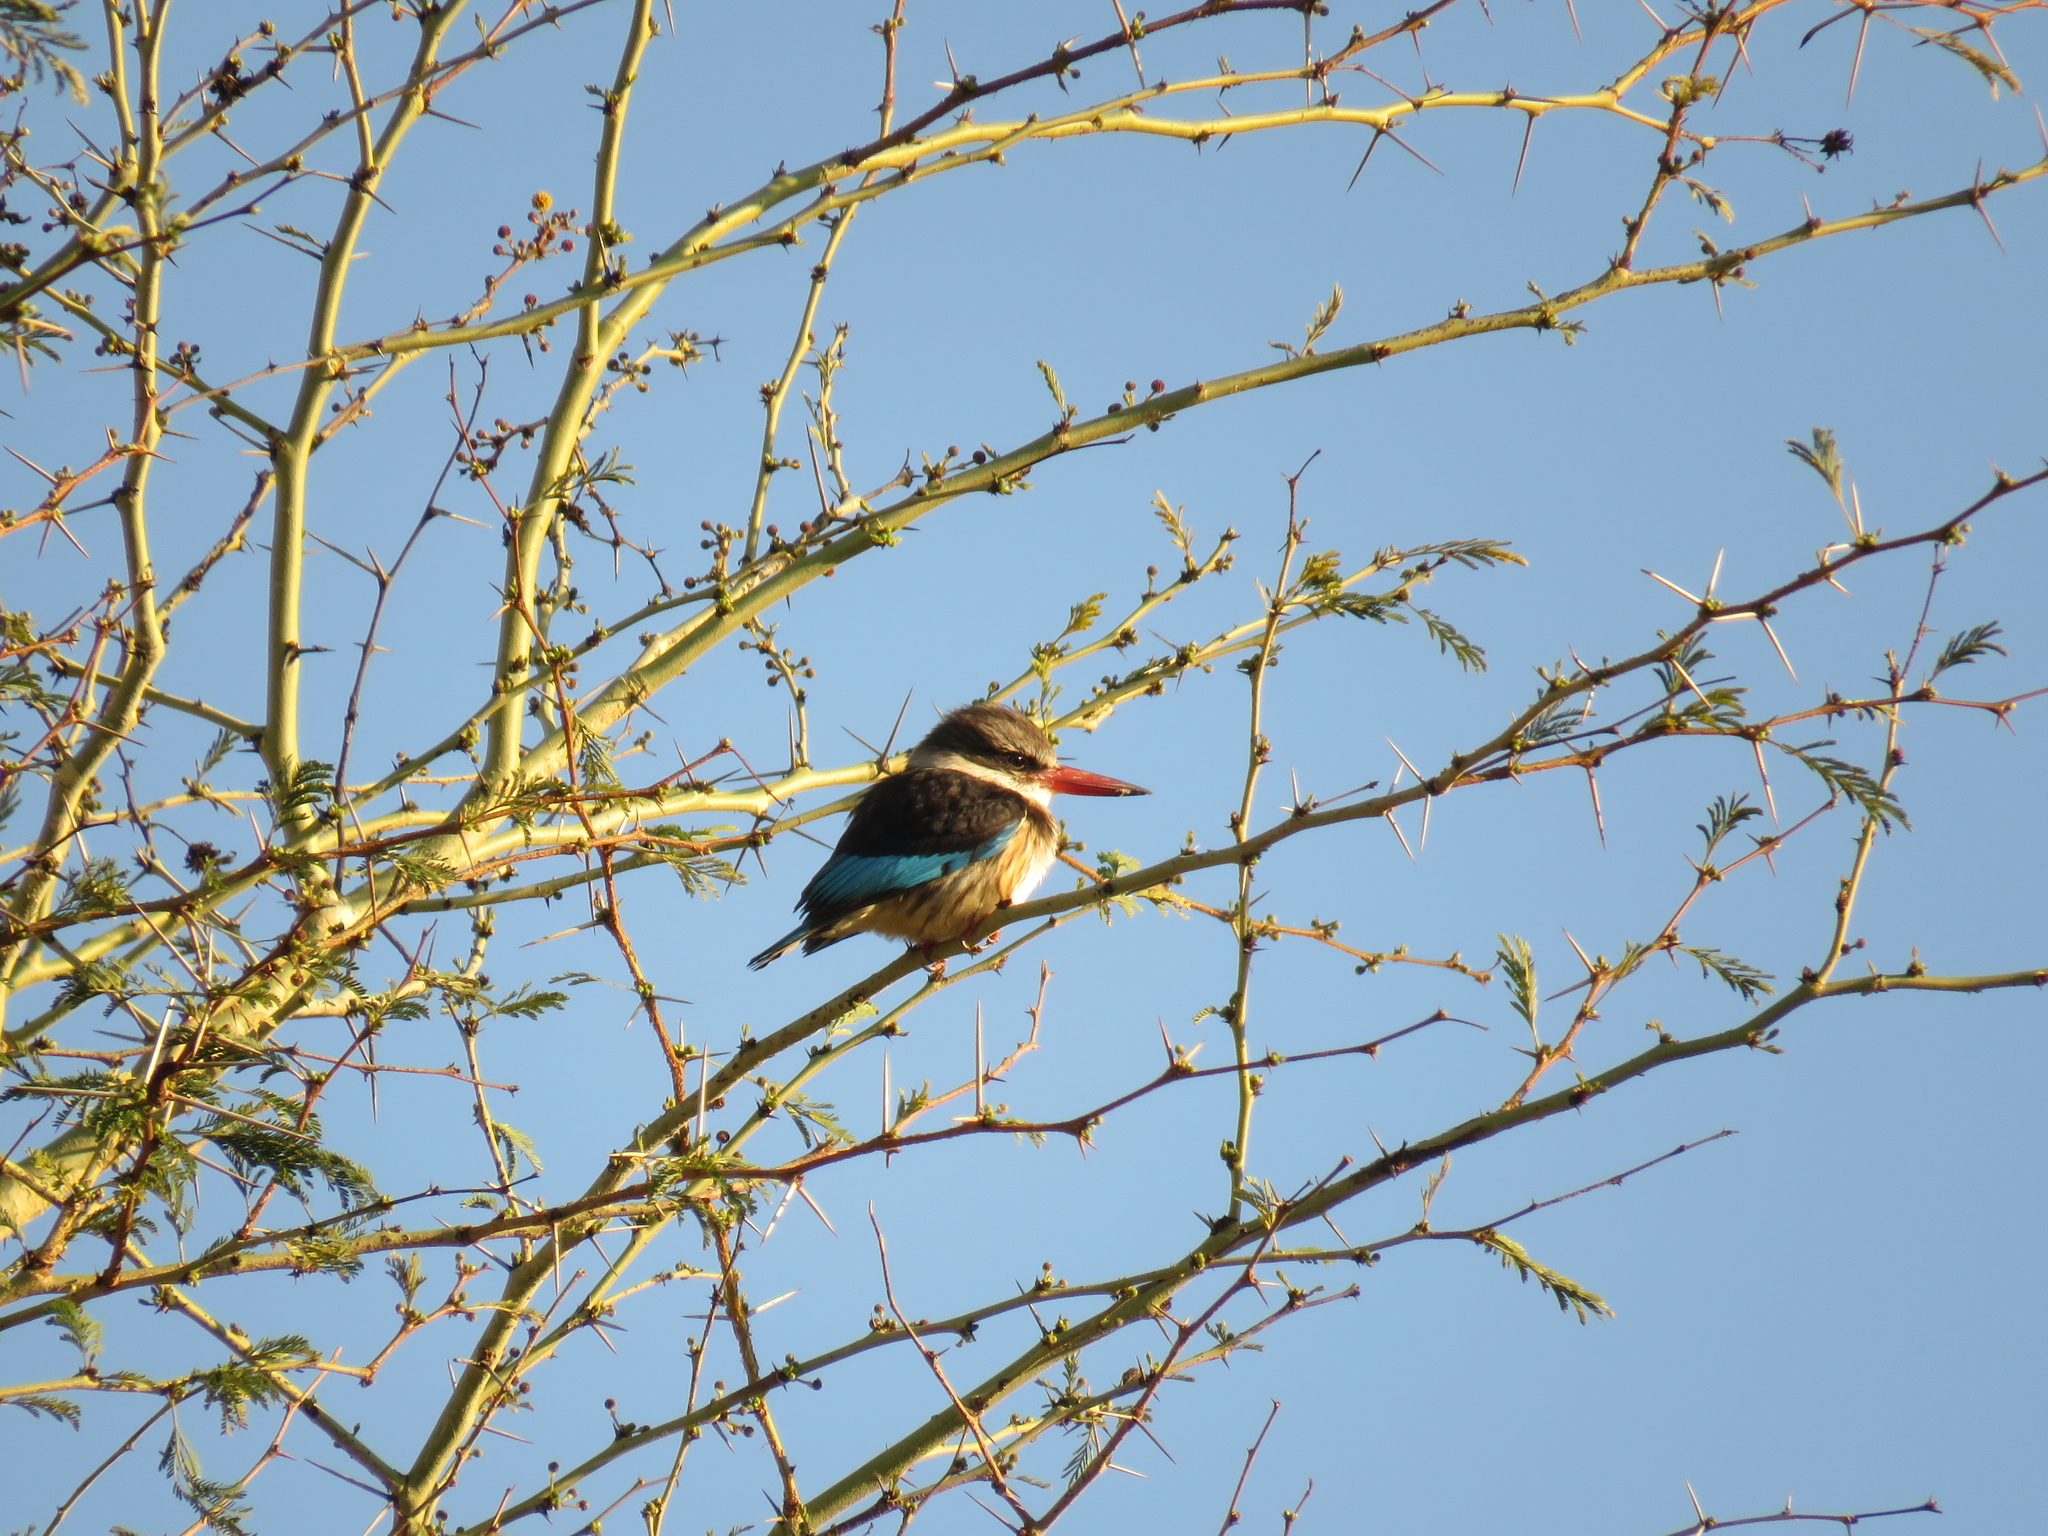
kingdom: Animalia
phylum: Chordata
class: Aves
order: Coraciiformes
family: Alcedinidae
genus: Halcyon
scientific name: Halcyon albiventris
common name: Brown-hooded kingfisher
